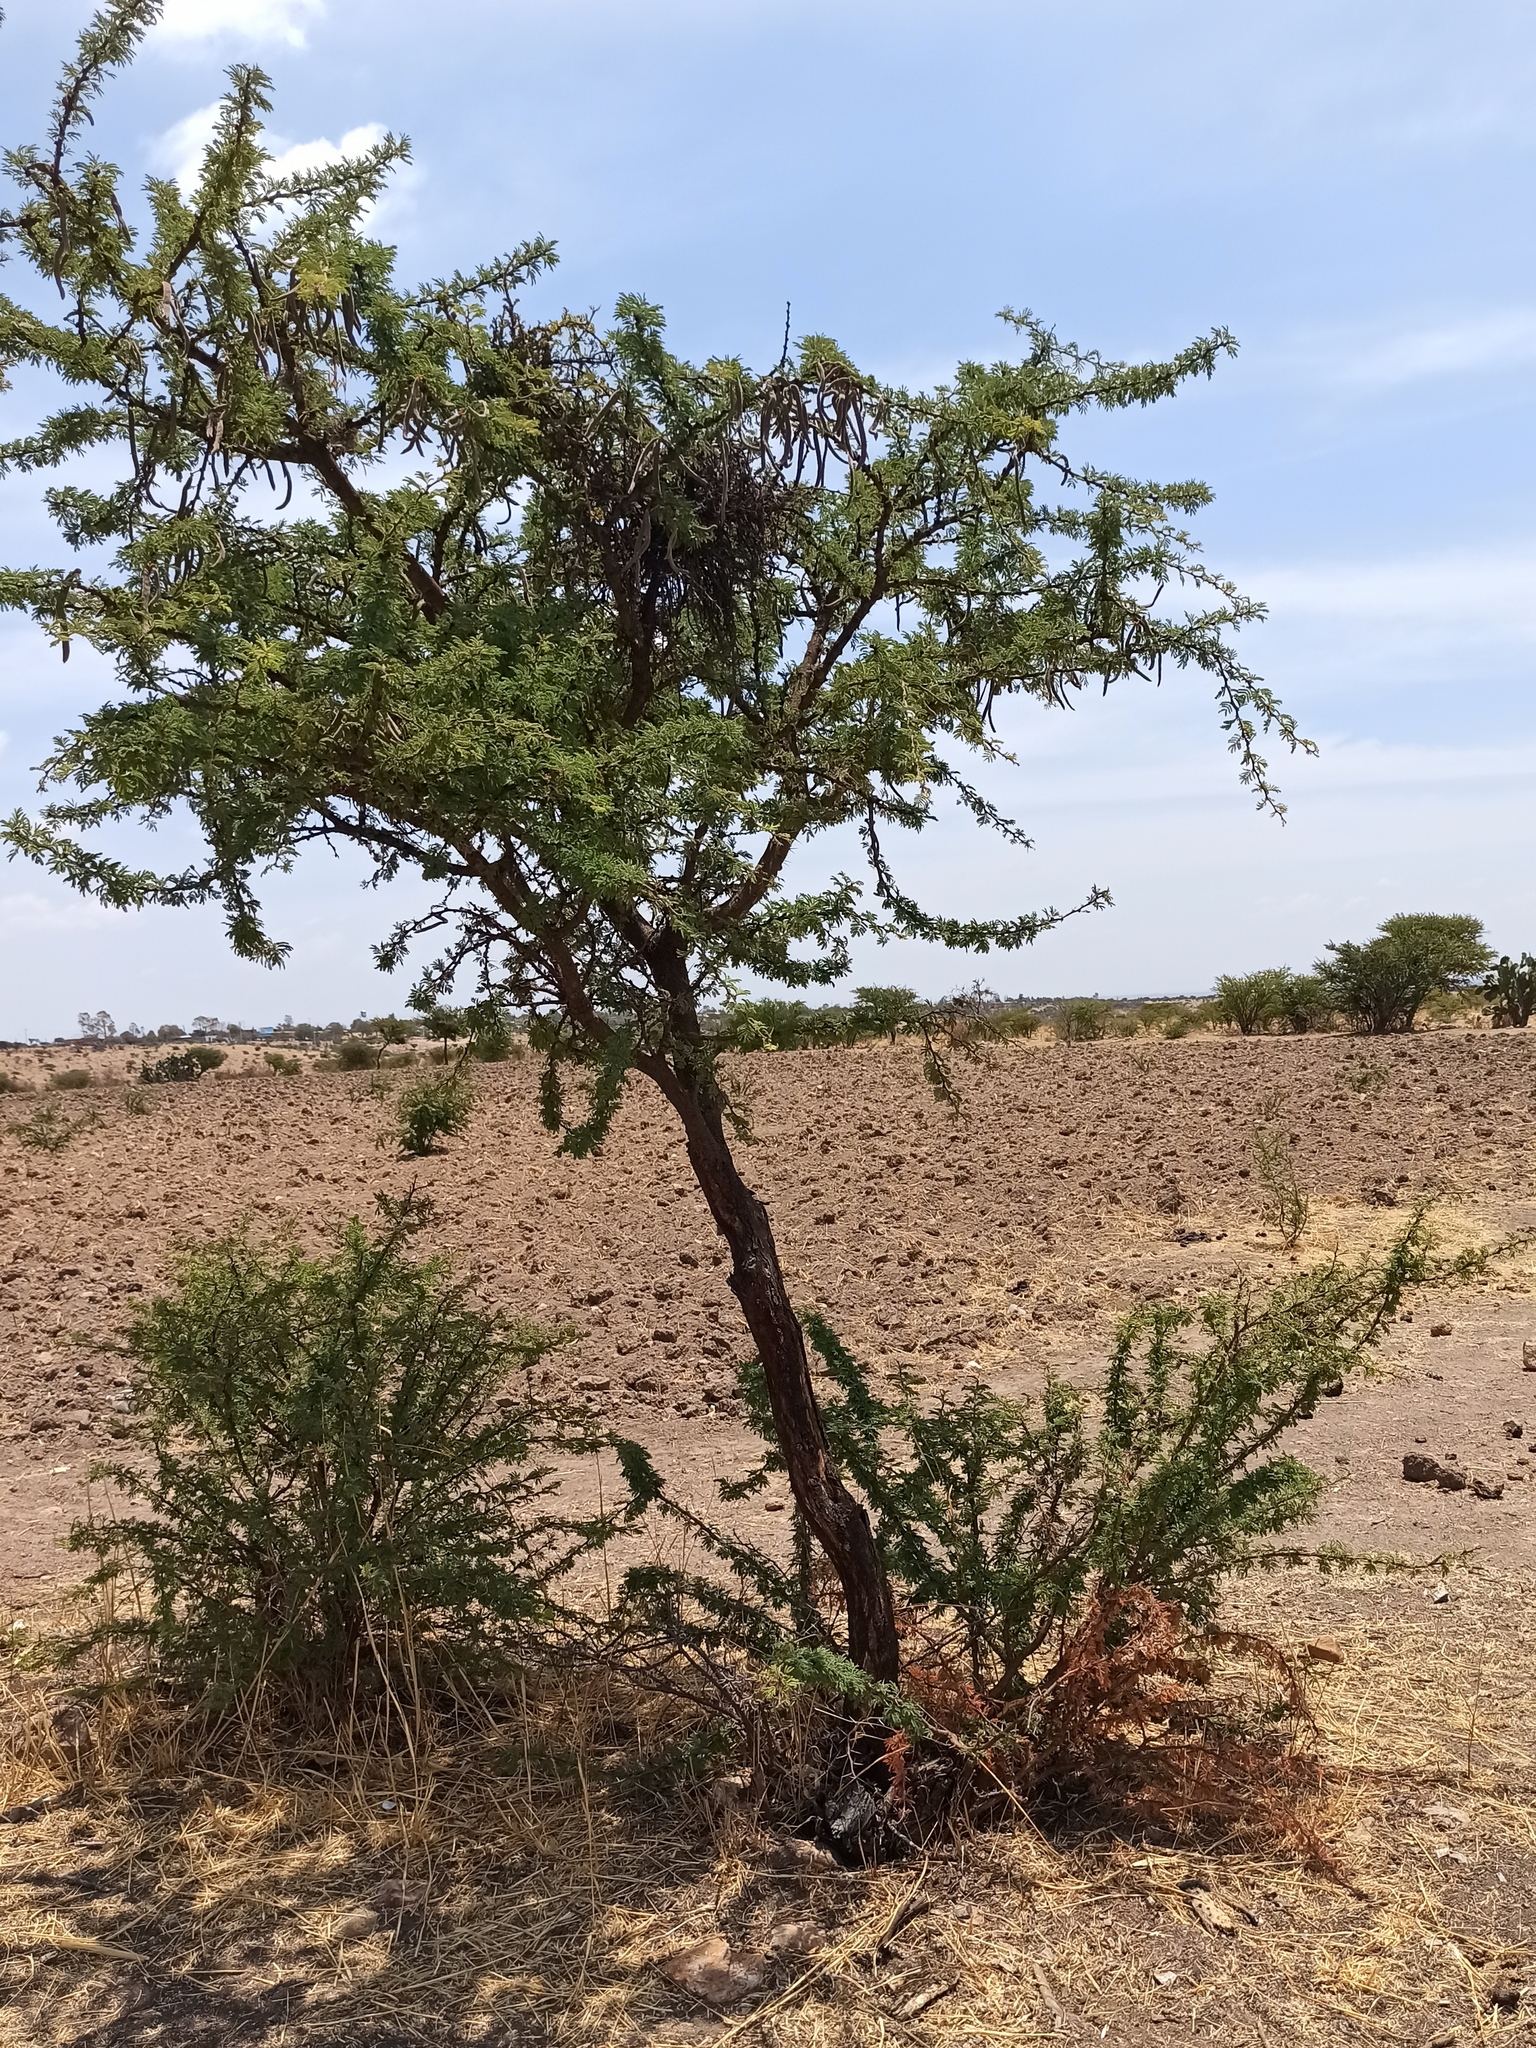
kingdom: Plantae
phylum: Tracheophyta
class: Magnoliopsida
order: Fabales
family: Fabaceae
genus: Vachellia
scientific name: Vachellia schaffneri
